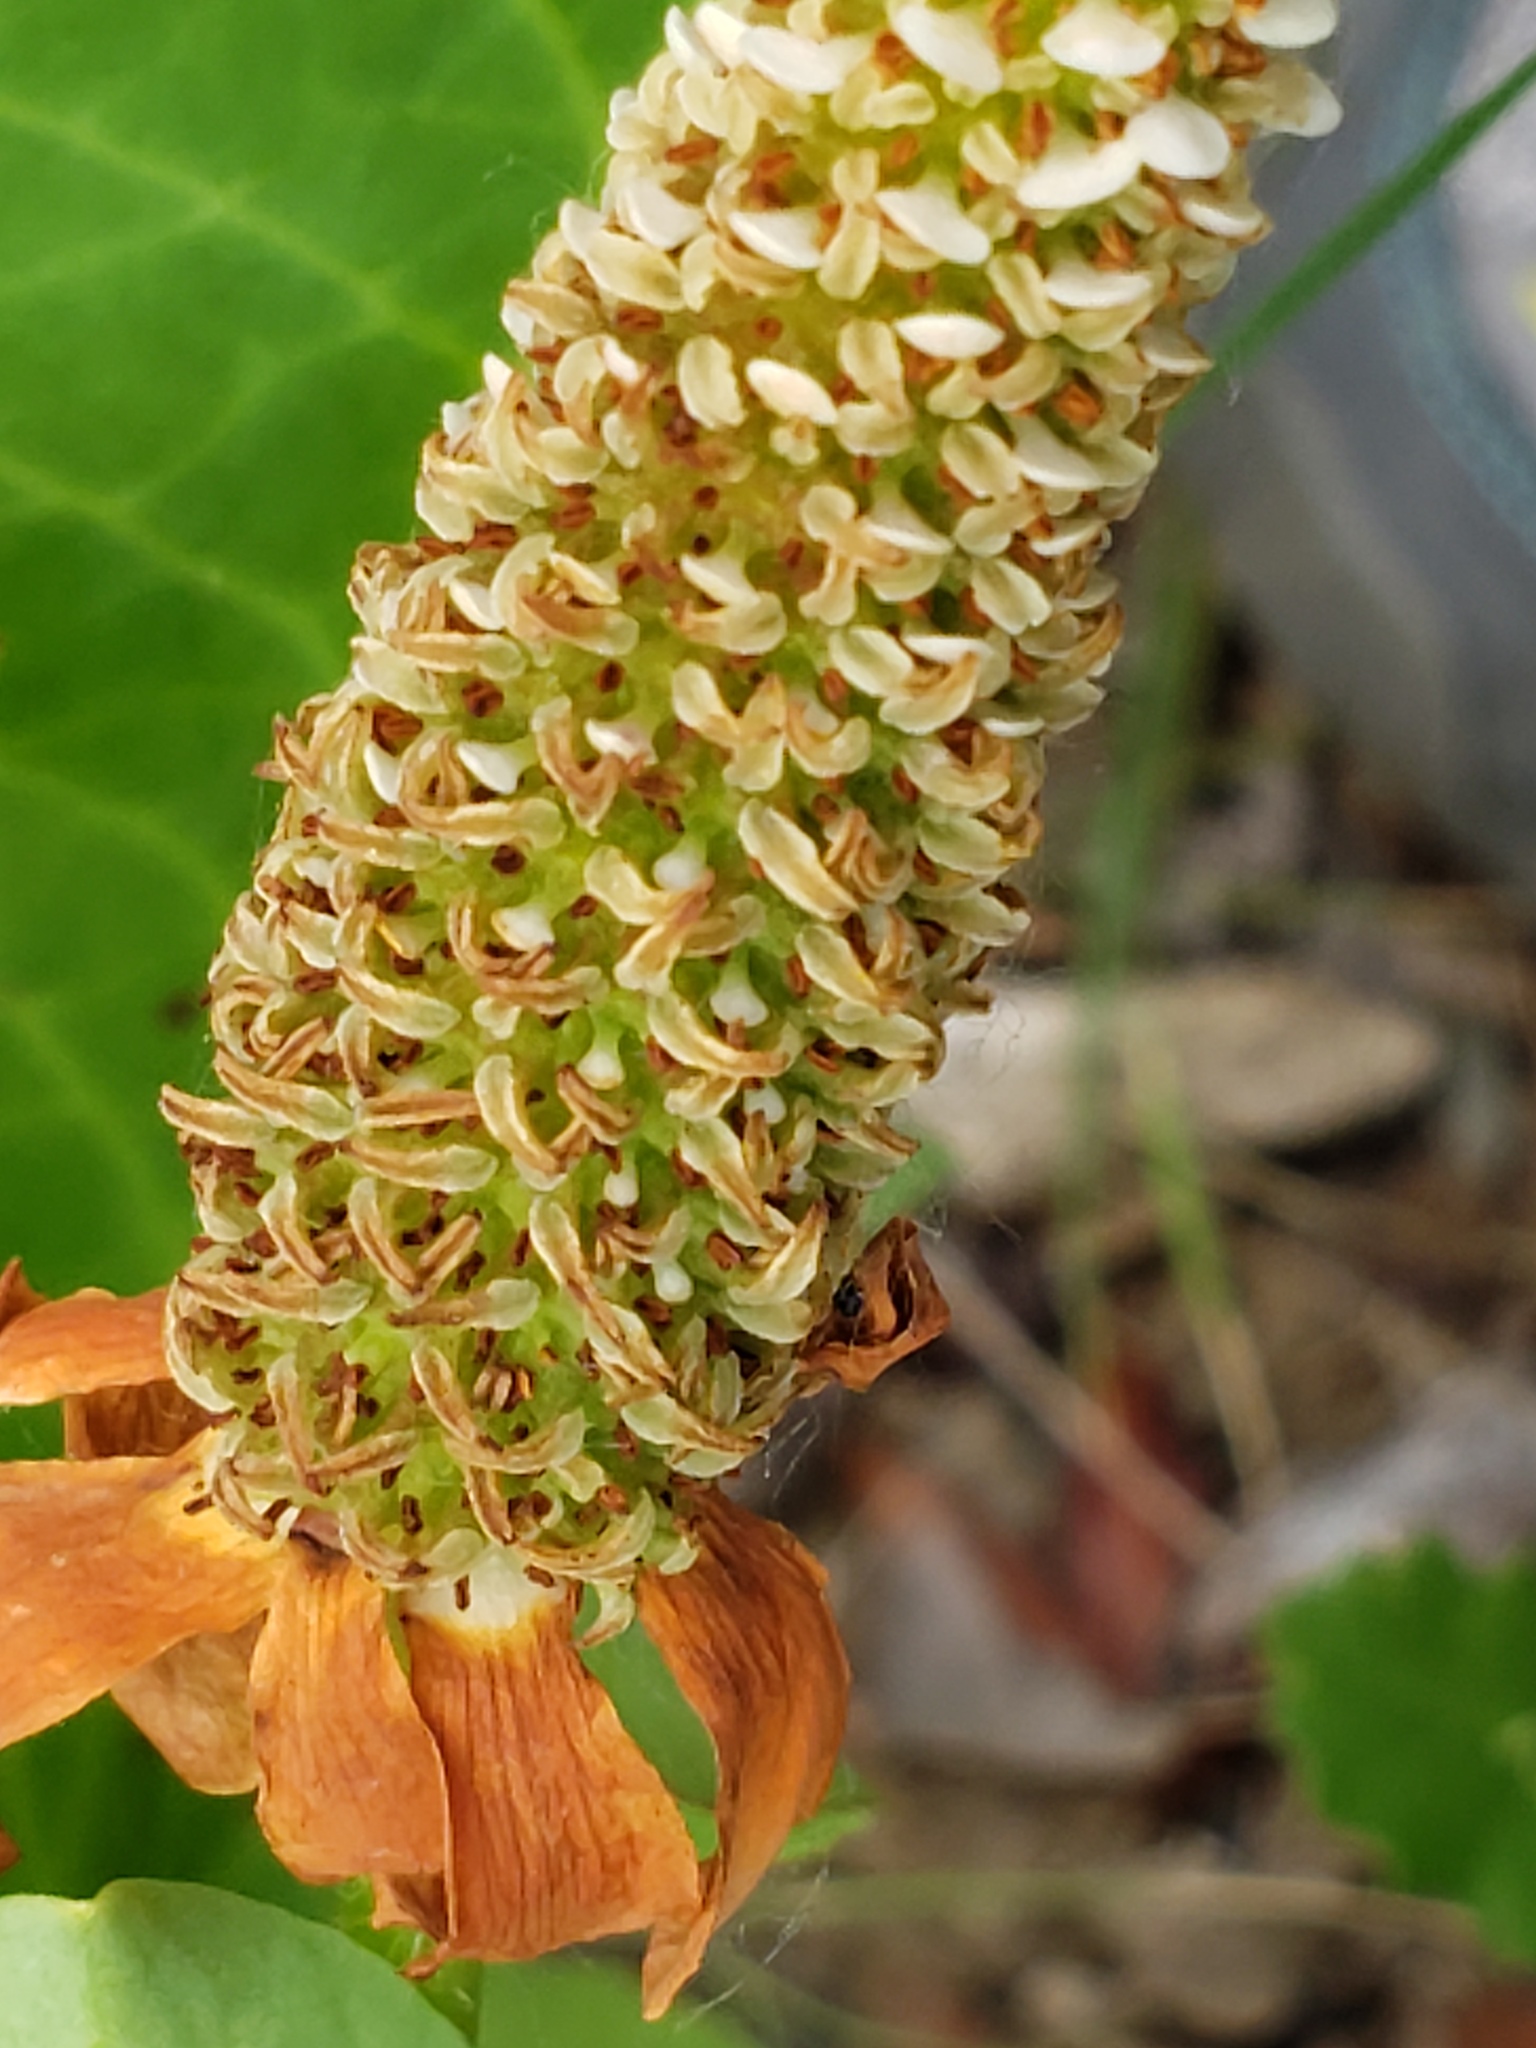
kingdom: Plantae
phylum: Tracheophyta
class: Magnoliopsida
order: Piperales
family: Saururaceae
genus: Anemopsis
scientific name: Anemopsis californica
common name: Apache-beads
